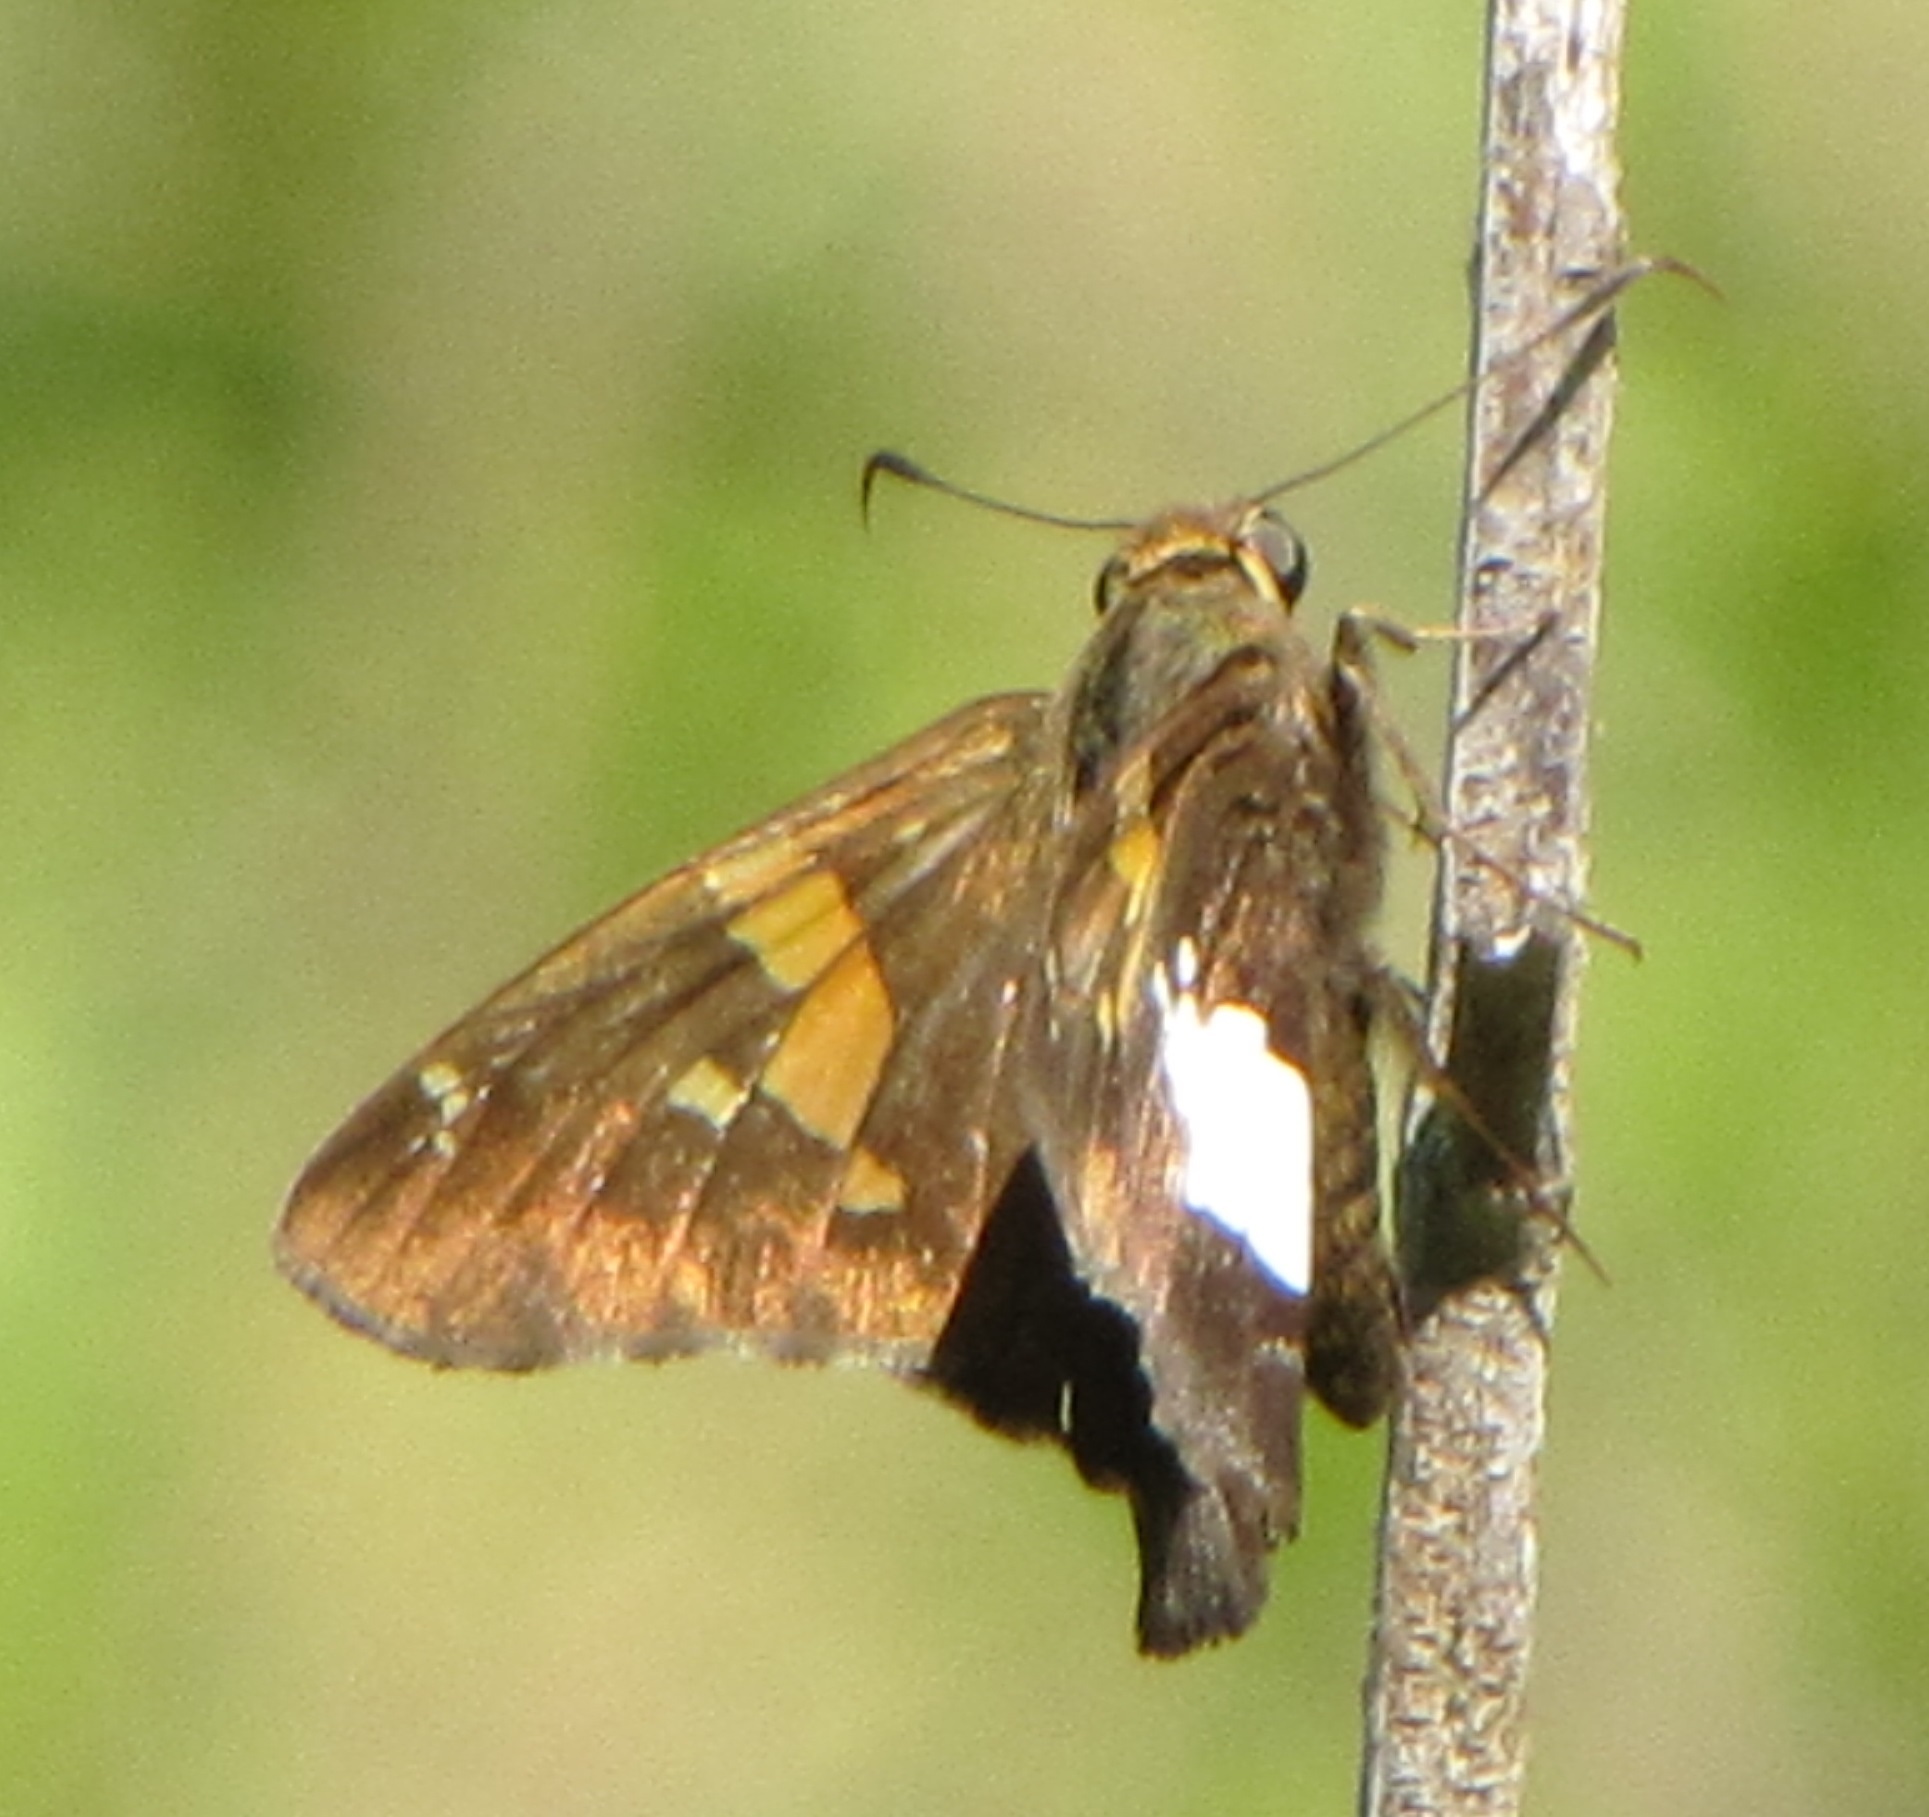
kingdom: Animalia
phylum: Arthropoda
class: Insecta
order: Lepidoptera
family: Hesperiidae
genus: Epargyreus
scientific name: Epargyreus clarus
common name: Silver-spotted skipper
